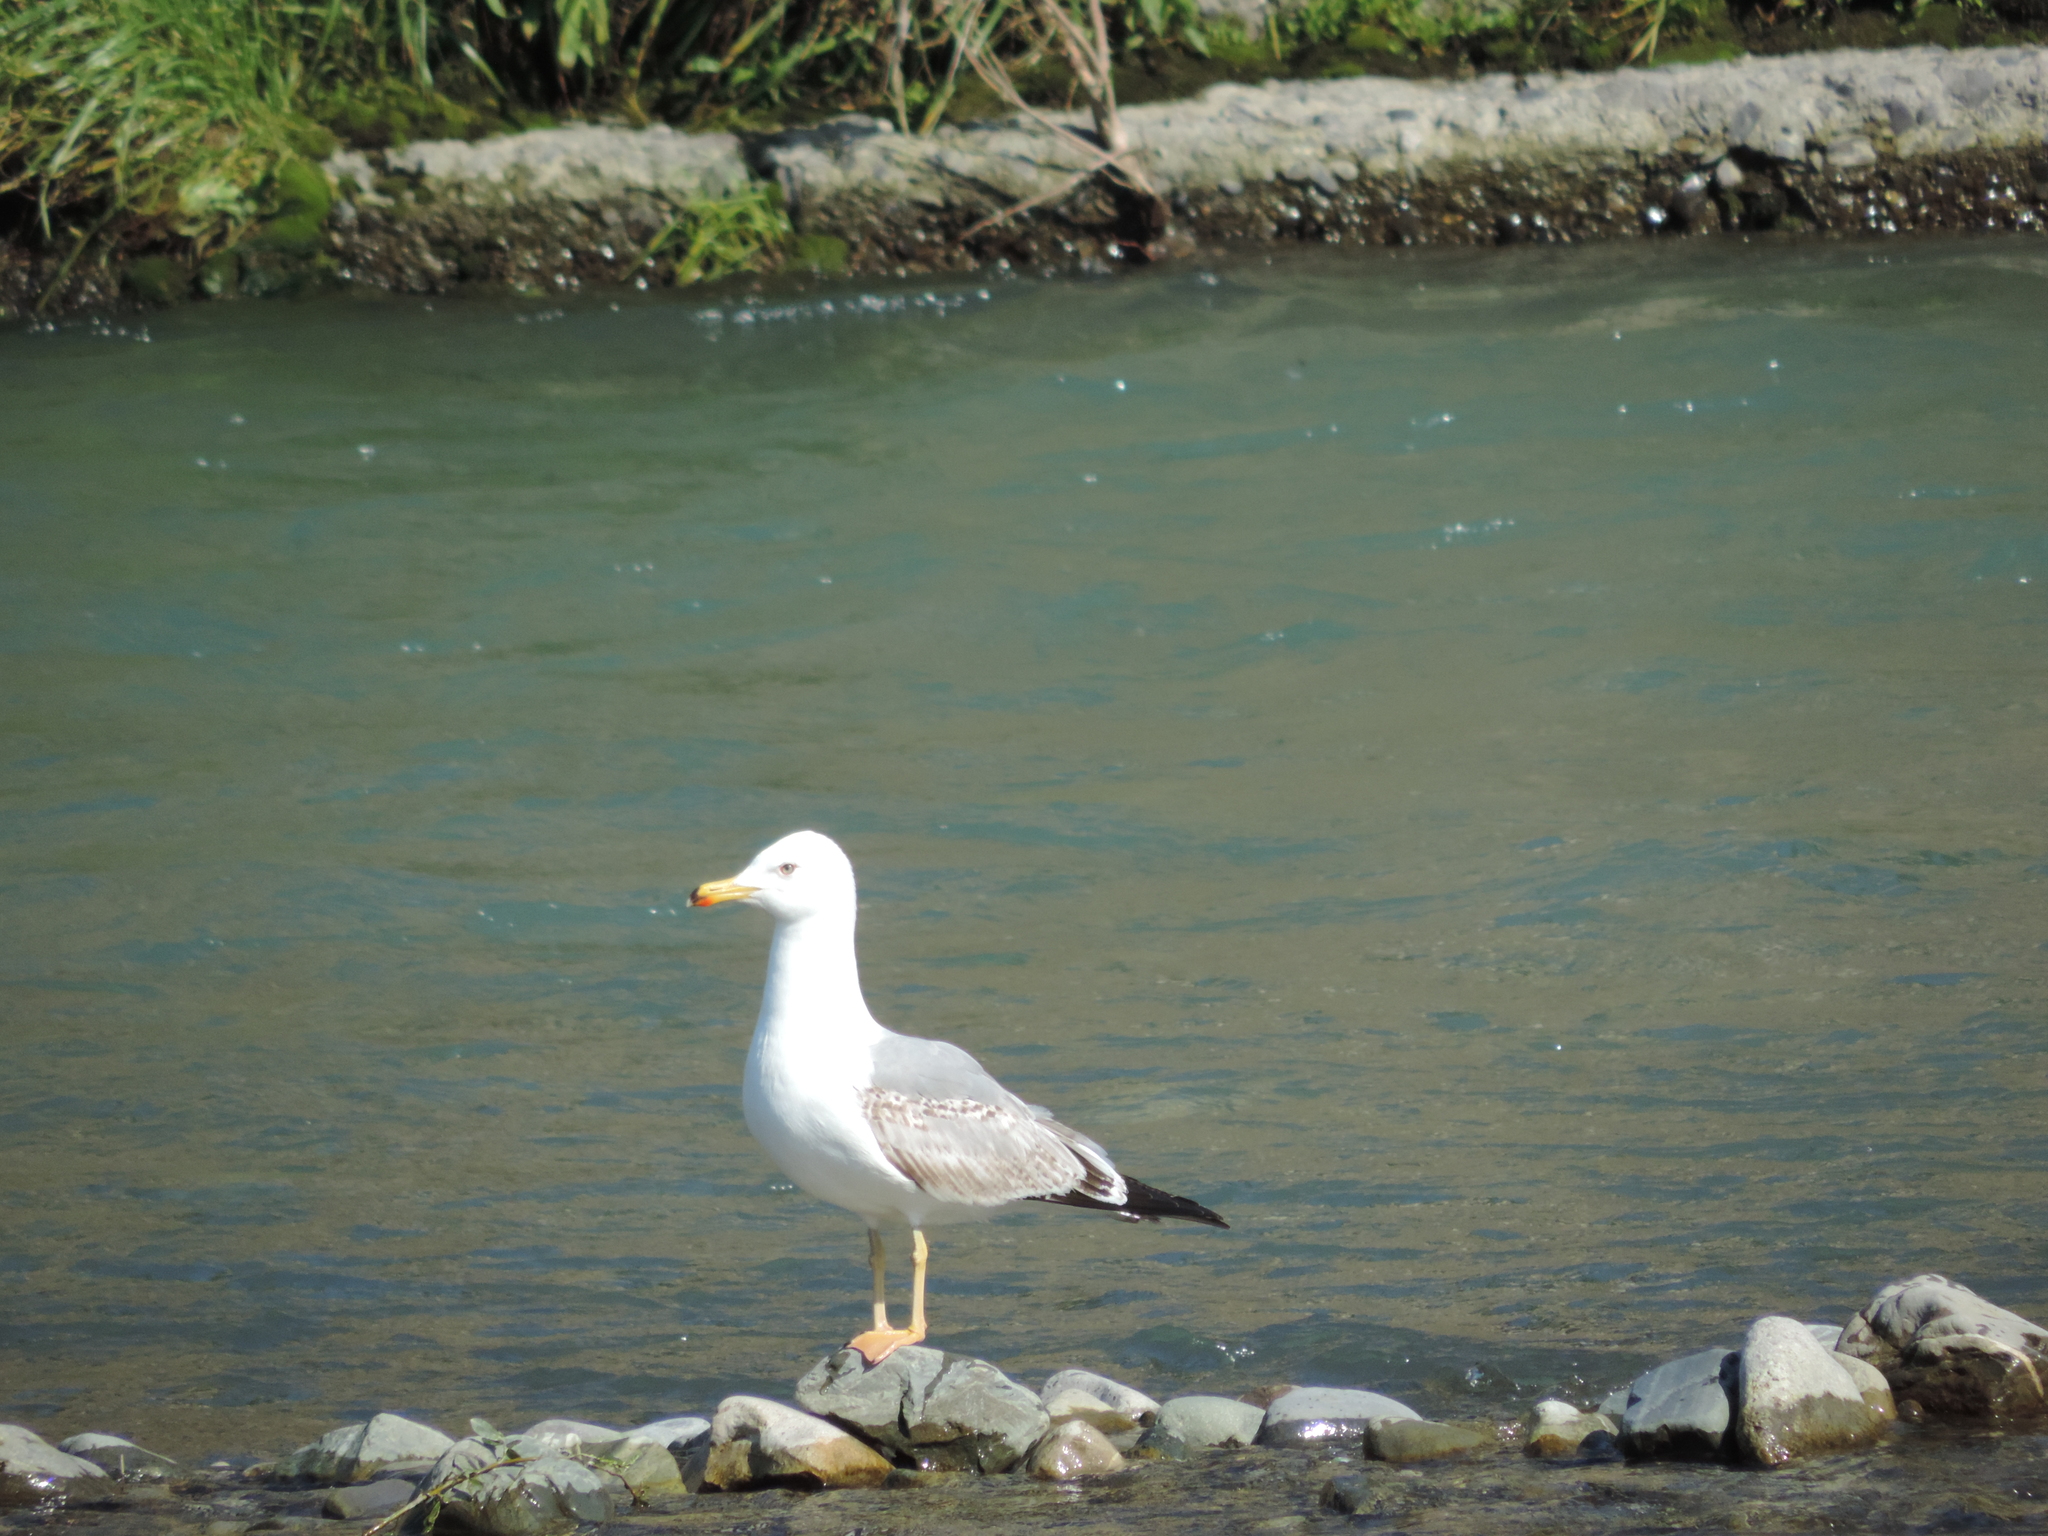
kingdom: Animalia
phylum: Chordata
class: Aves
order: Charadriiformes
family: Laridae
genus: Larus
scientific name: Larus michahellis
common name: Yellow-legged gull
